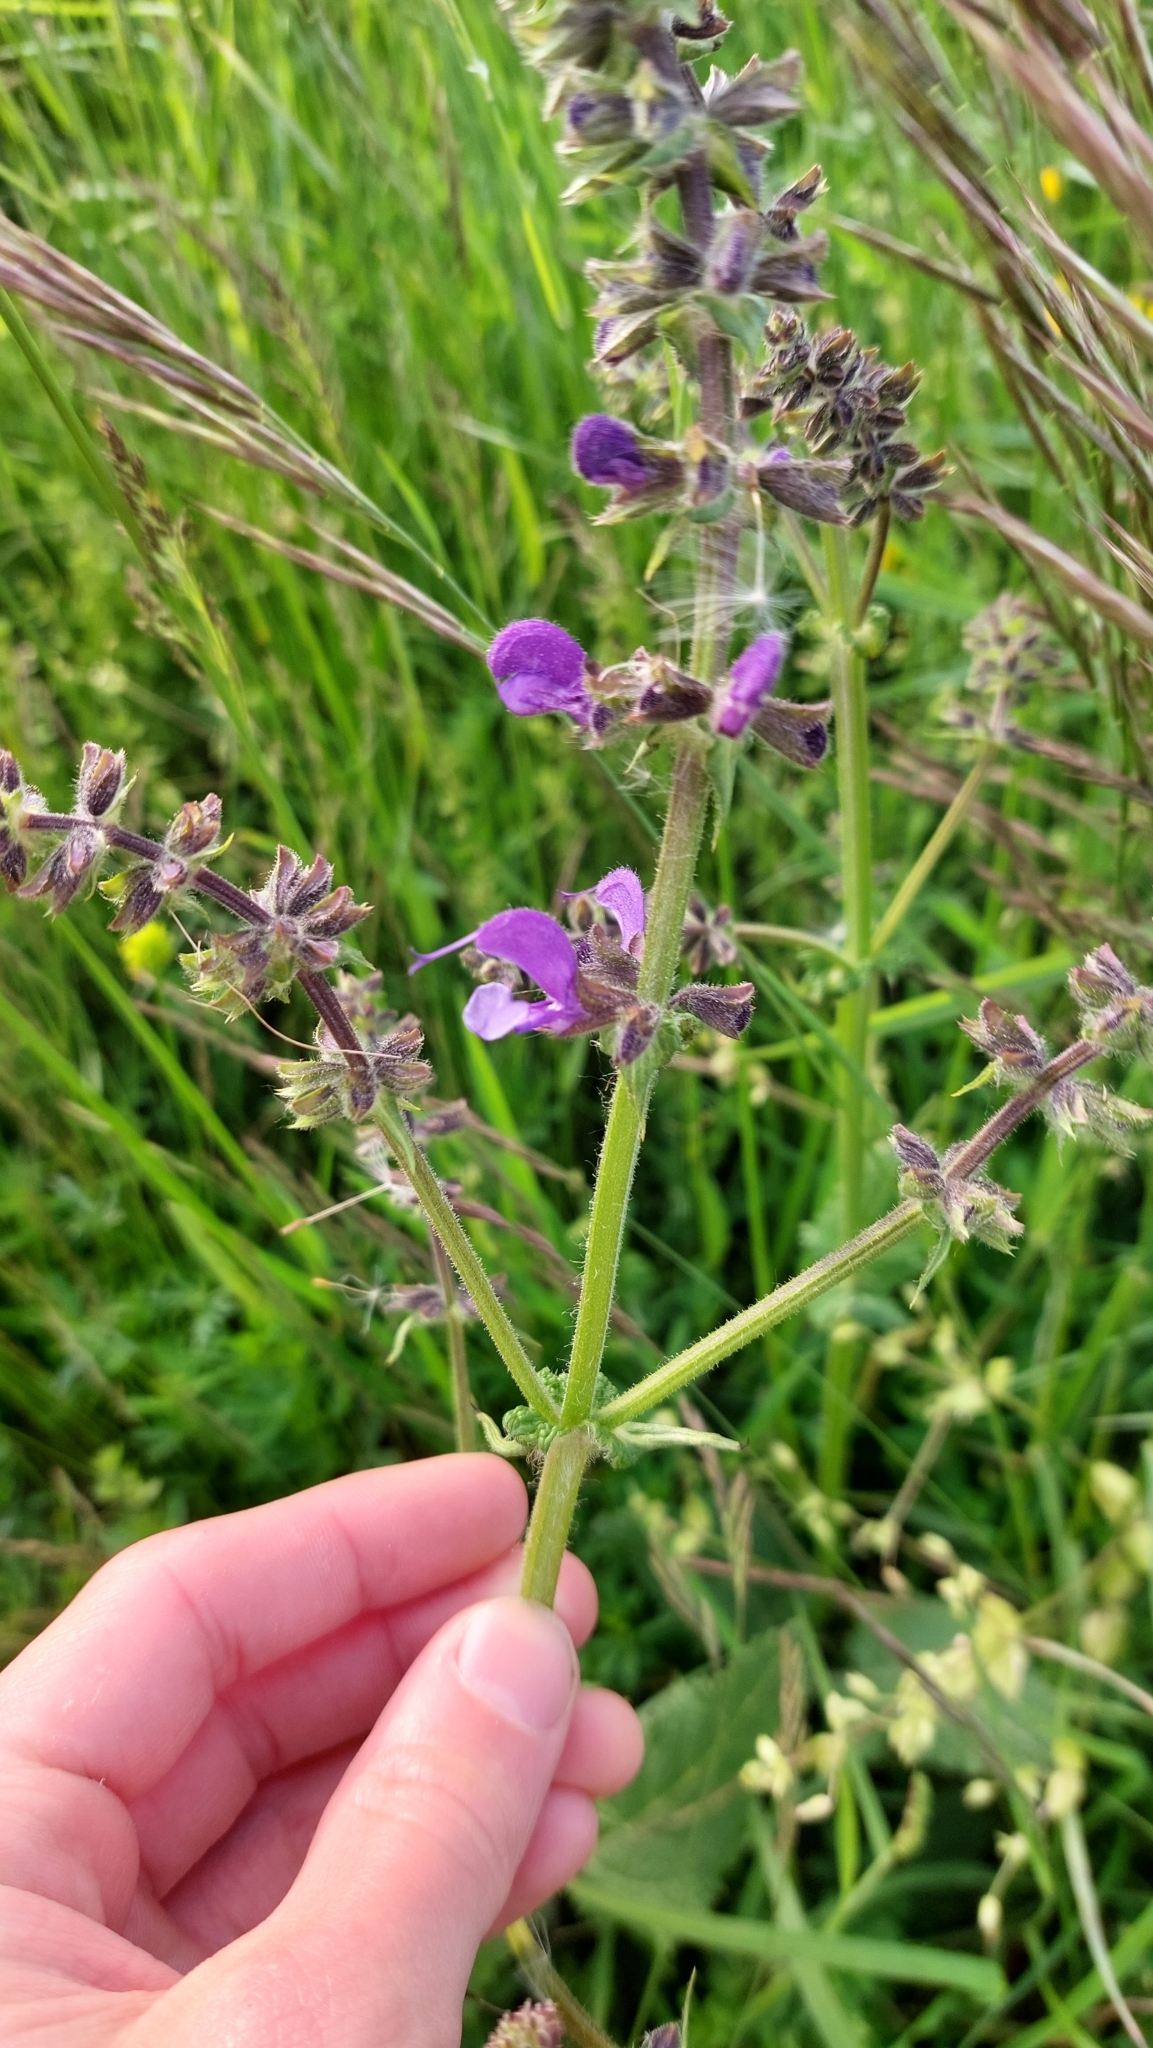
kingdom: Plantae
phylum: Tracheophyta
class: Magnoliopsida
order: Lamiales
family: Lamiaceae
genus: Salvia
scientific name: Salvia pratensis
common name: Meadow sage
